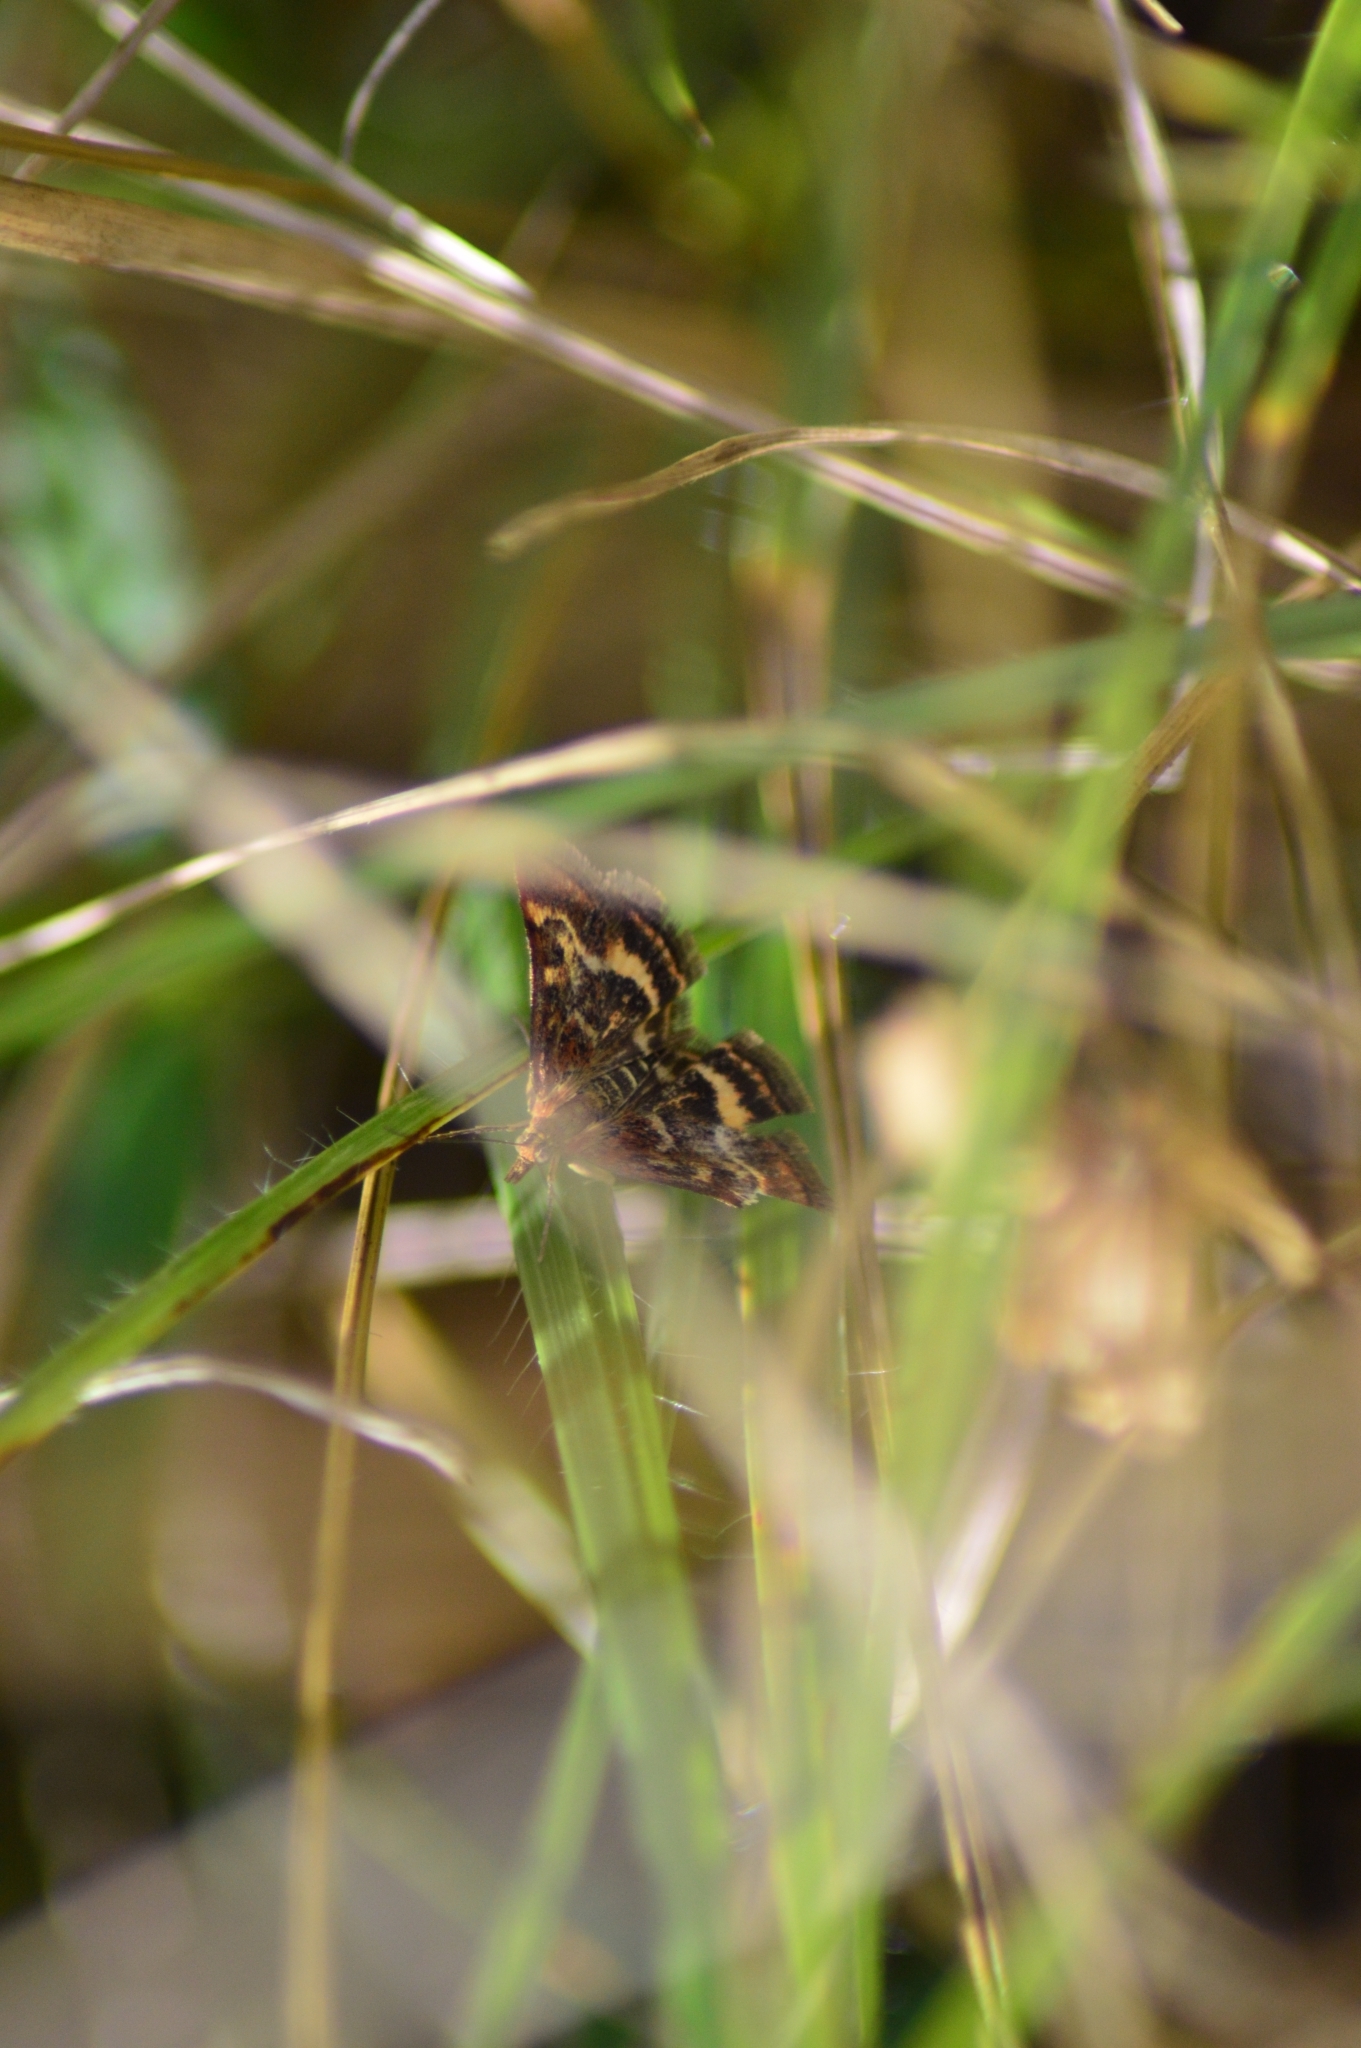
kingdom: Animalia
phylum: Arthropoda
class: Insecta
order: Lepidoptera
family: Crambidae
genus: Pyrausta
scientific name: Pyrausta ostrinalis
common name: Scarce purple & gold
